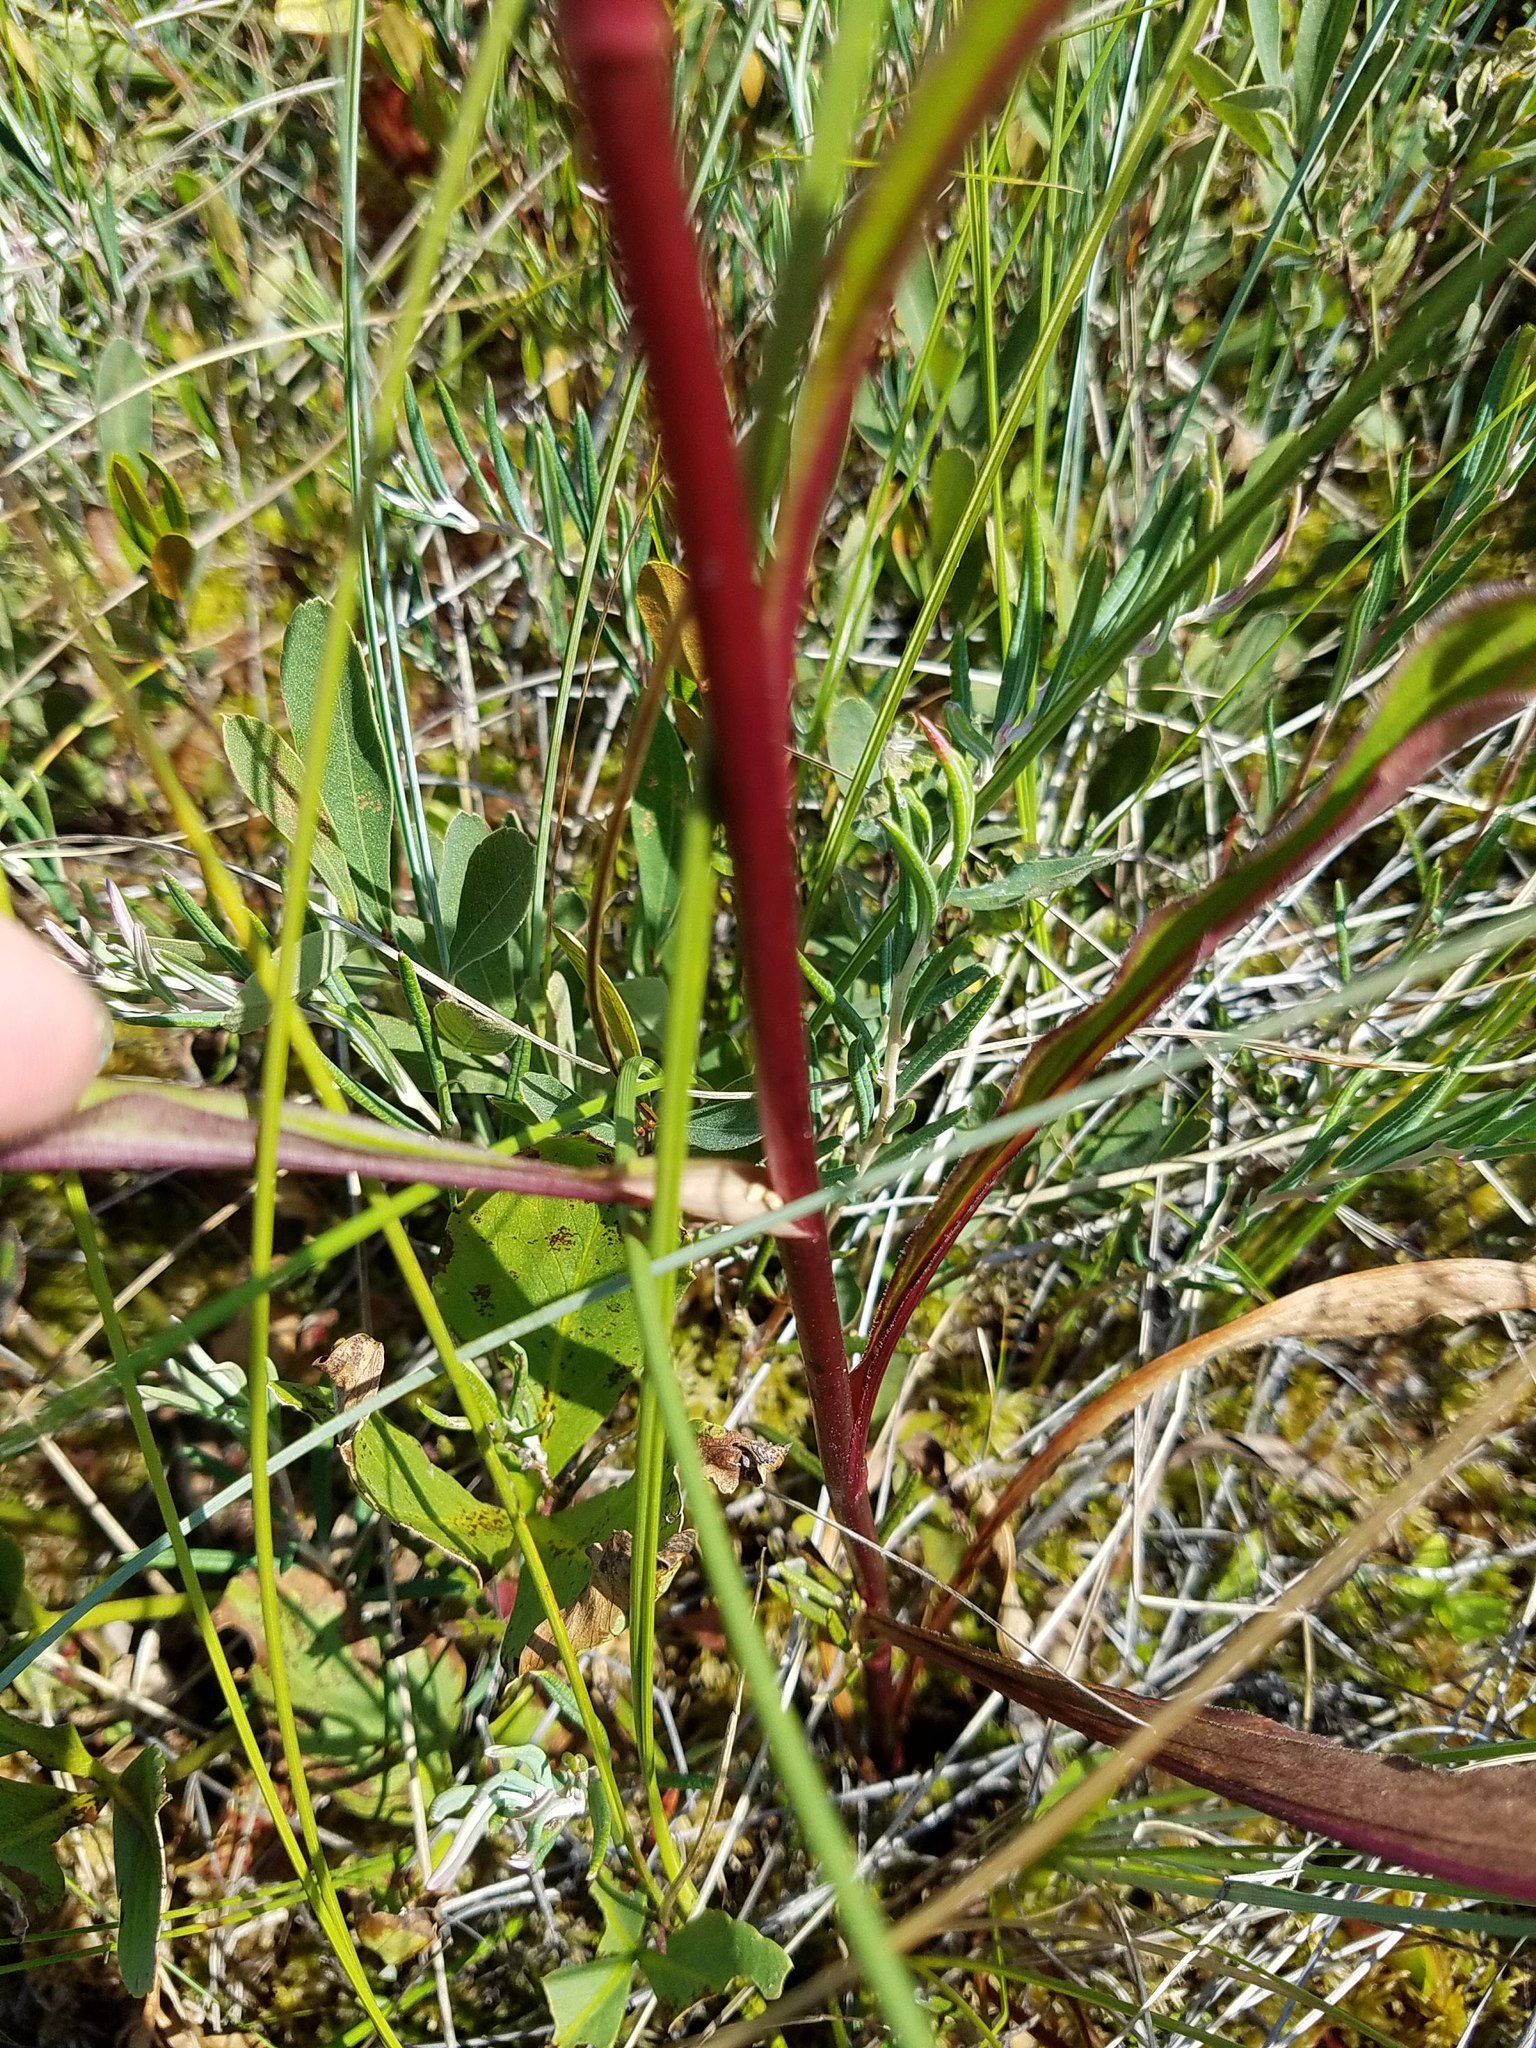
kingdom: Plantae
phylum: Tracheophyta
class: Magnoliopsida
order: Asterales
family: Asteraceae
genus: Solidago
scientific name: Solidago uliginosa
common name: Bog goldenrod
